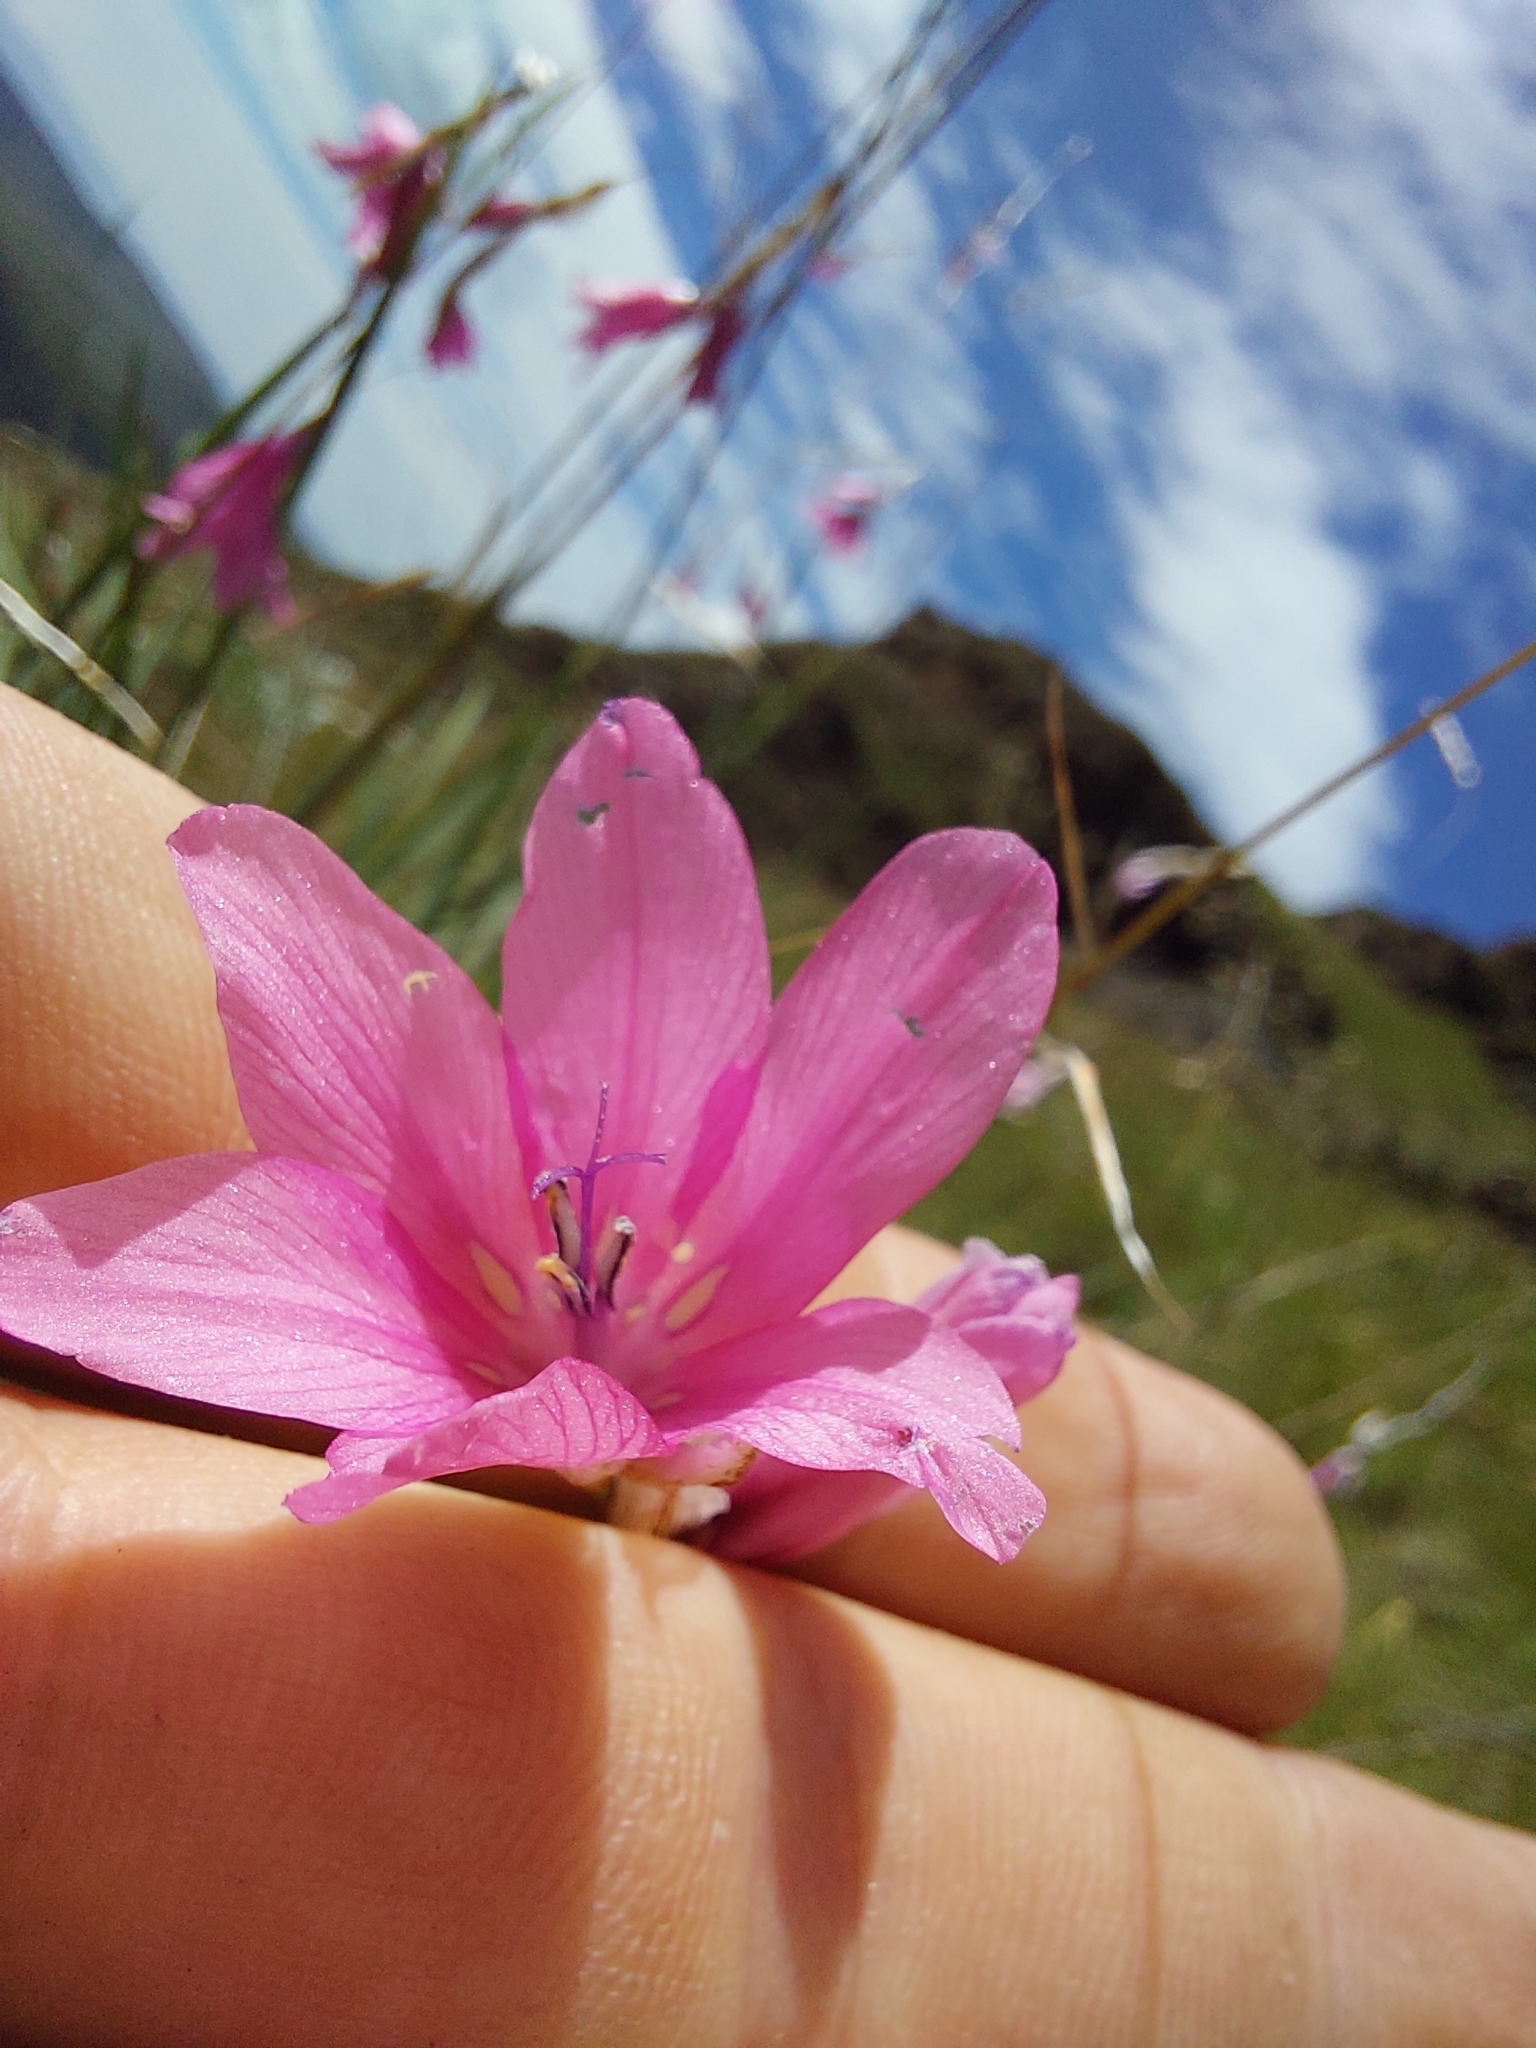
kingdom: Plantae
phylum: Tracheophyta
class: Liliopsida
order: Asparagales
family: Iridaceae
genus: Dierama
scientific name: Dierama dracomontanum
